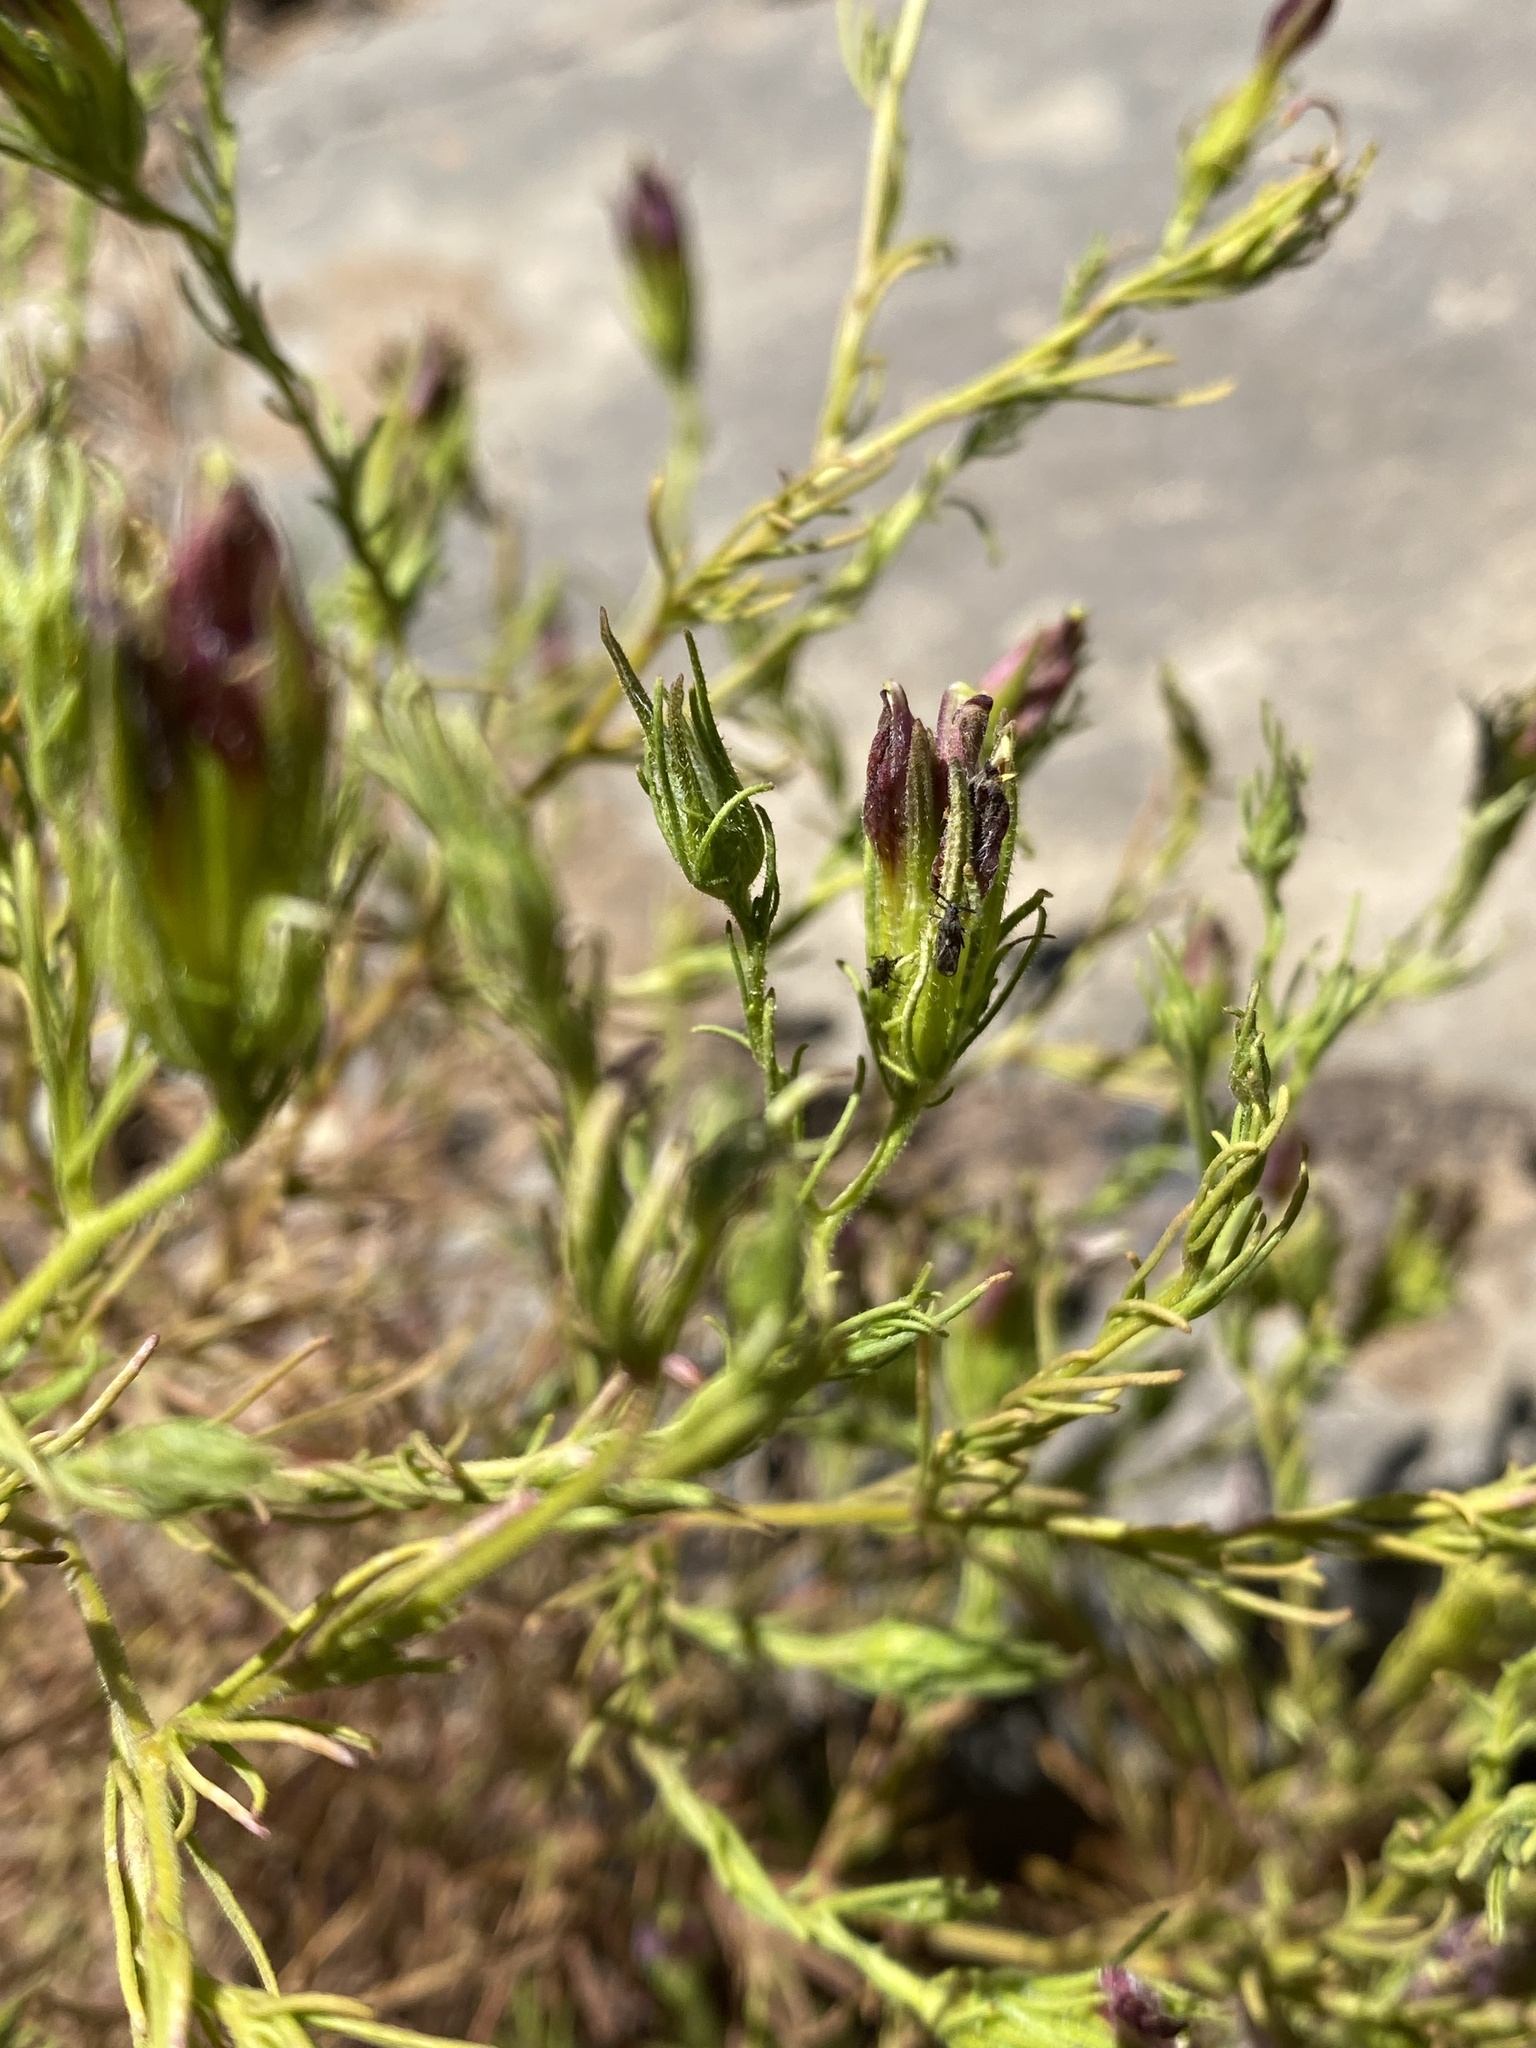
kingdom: Plantae
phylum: Tracheophyta
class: Magnoliopsida
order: Lamiales
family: Orobanchaceae
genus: Cordylanthus
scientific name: Cordylanthus wrightii
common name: Wright's birdsbeak
